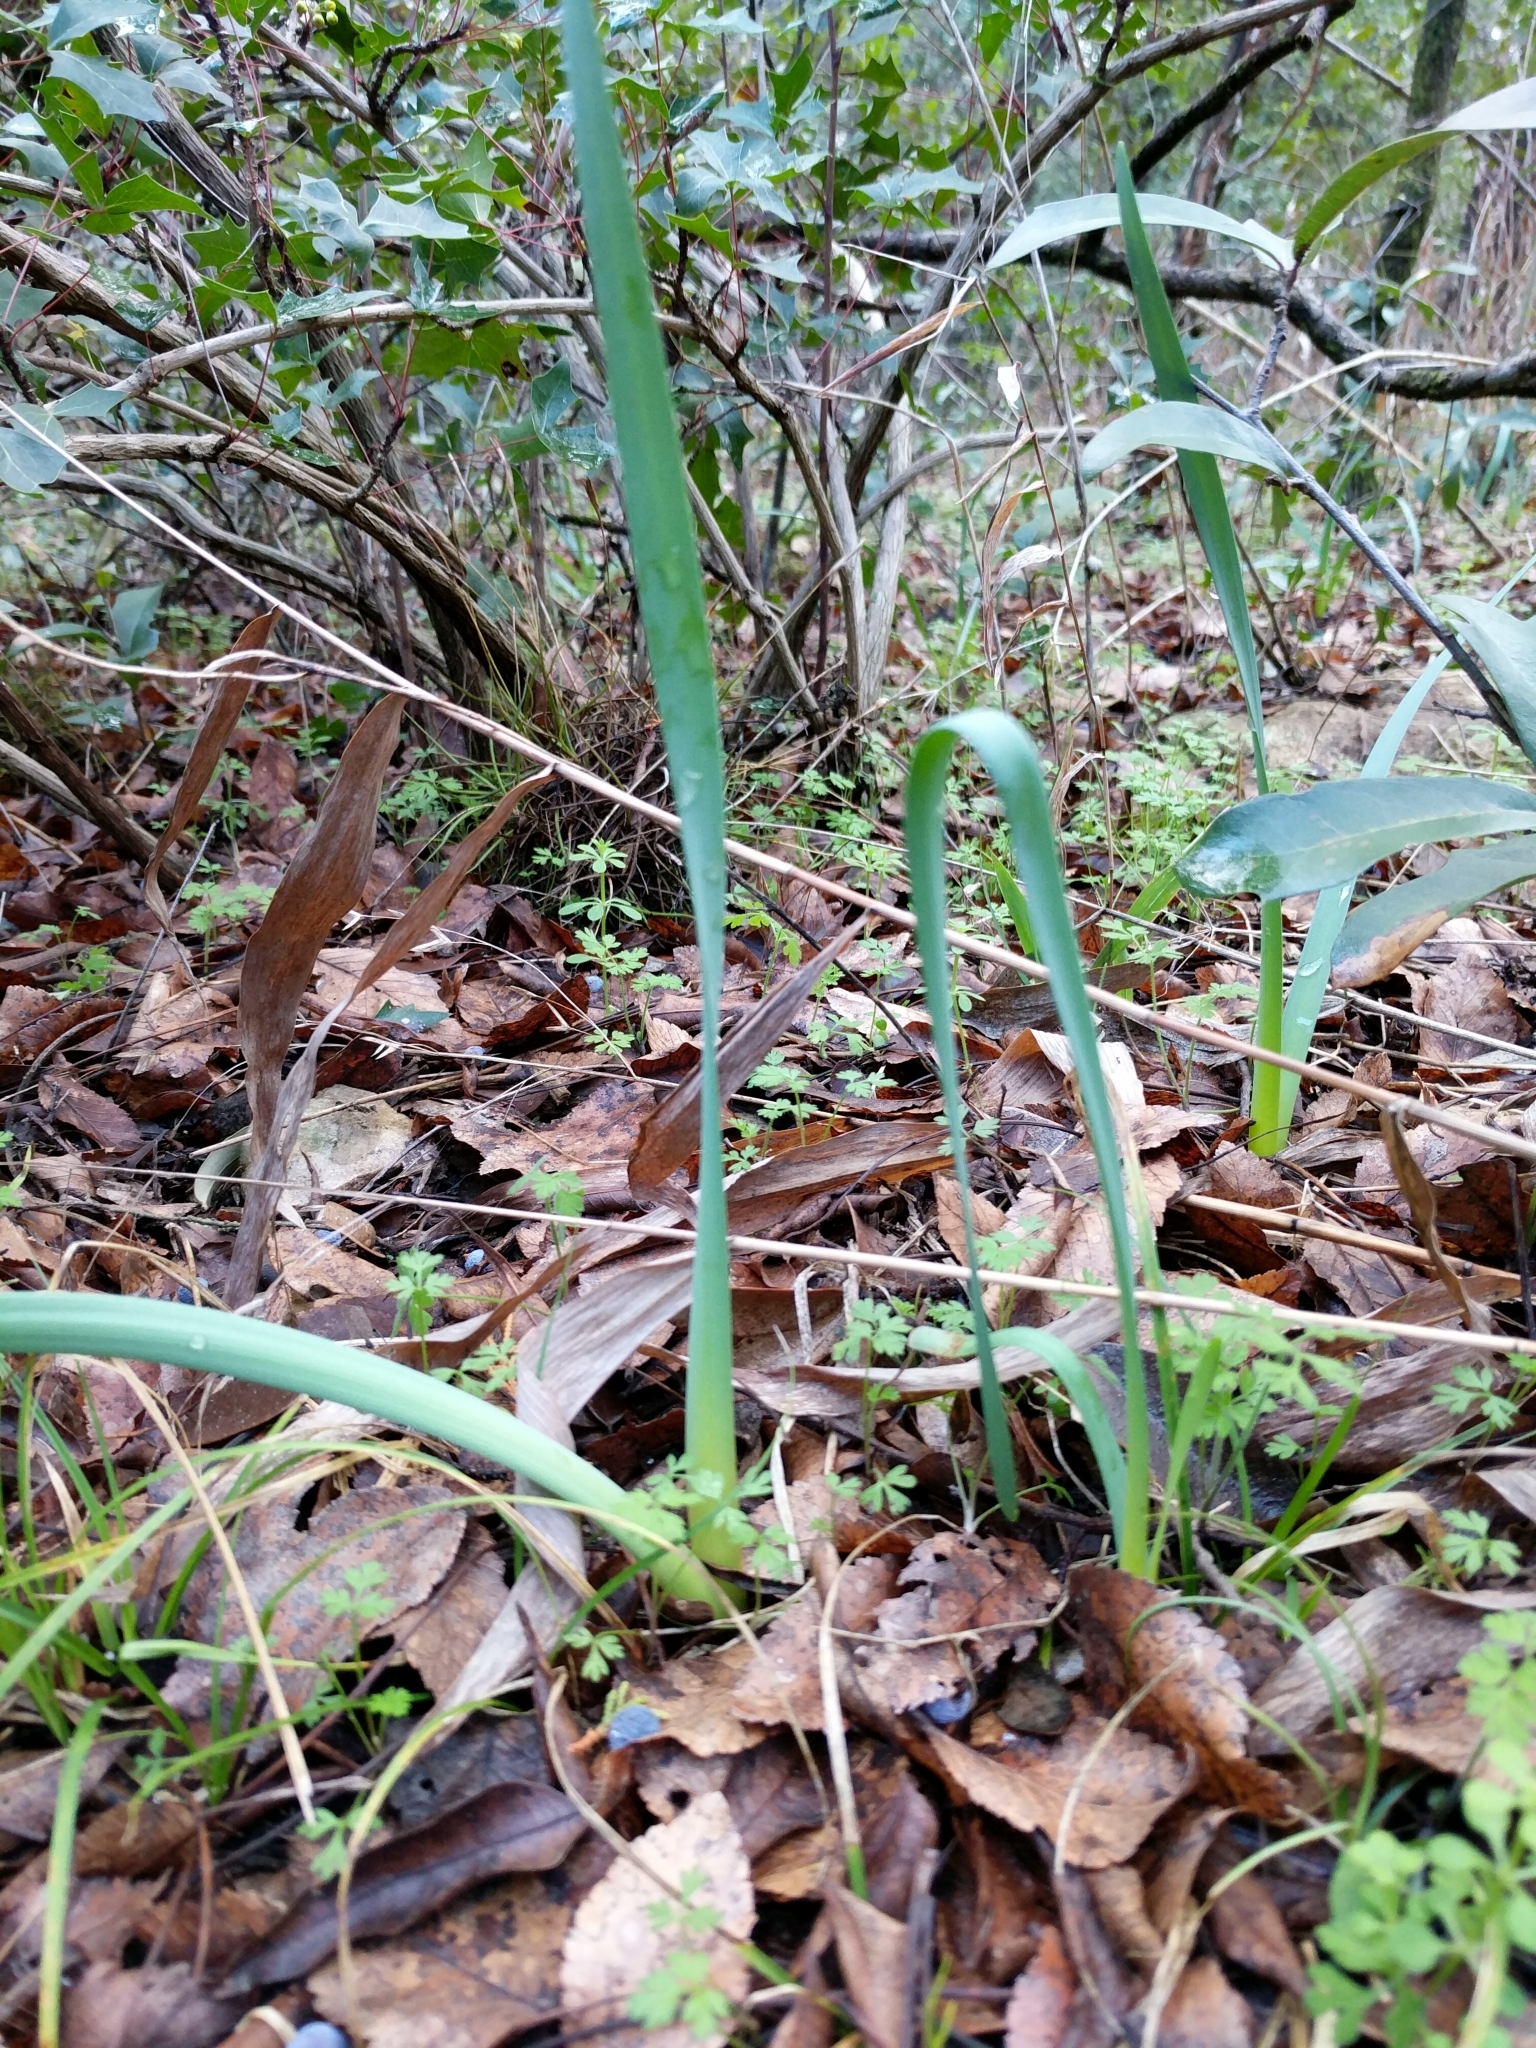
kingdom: Plantae
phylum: Tracheophyta
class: Liliopsida
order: Asparagales
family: Amaryllidaceae
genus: Zephyranthes
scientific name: Zephyranthes drummondii
